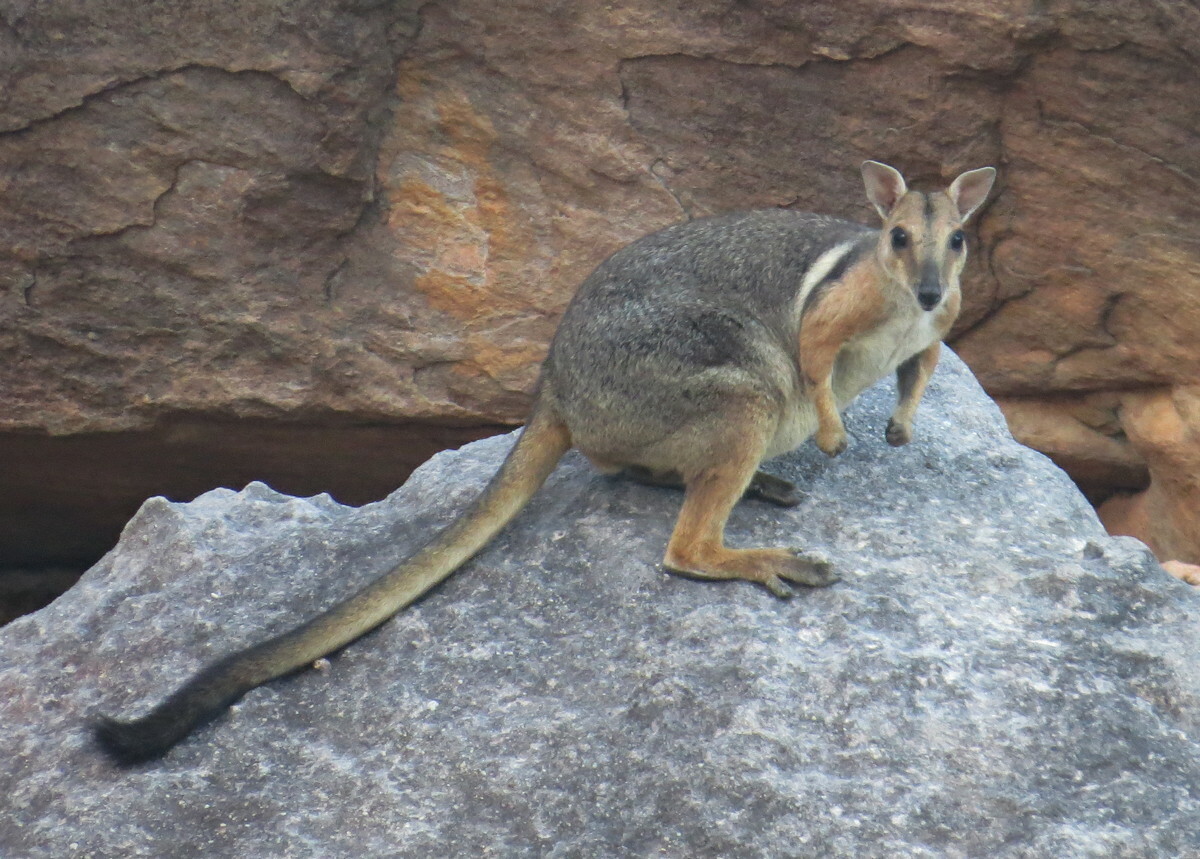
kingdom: Animalia
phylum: Chordata
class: Mammalia
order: Diprotodontia
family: Macropodidae
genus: Petrogale
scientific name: Petrogale wilkinsi
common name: Wilkins’s rock wallaby
